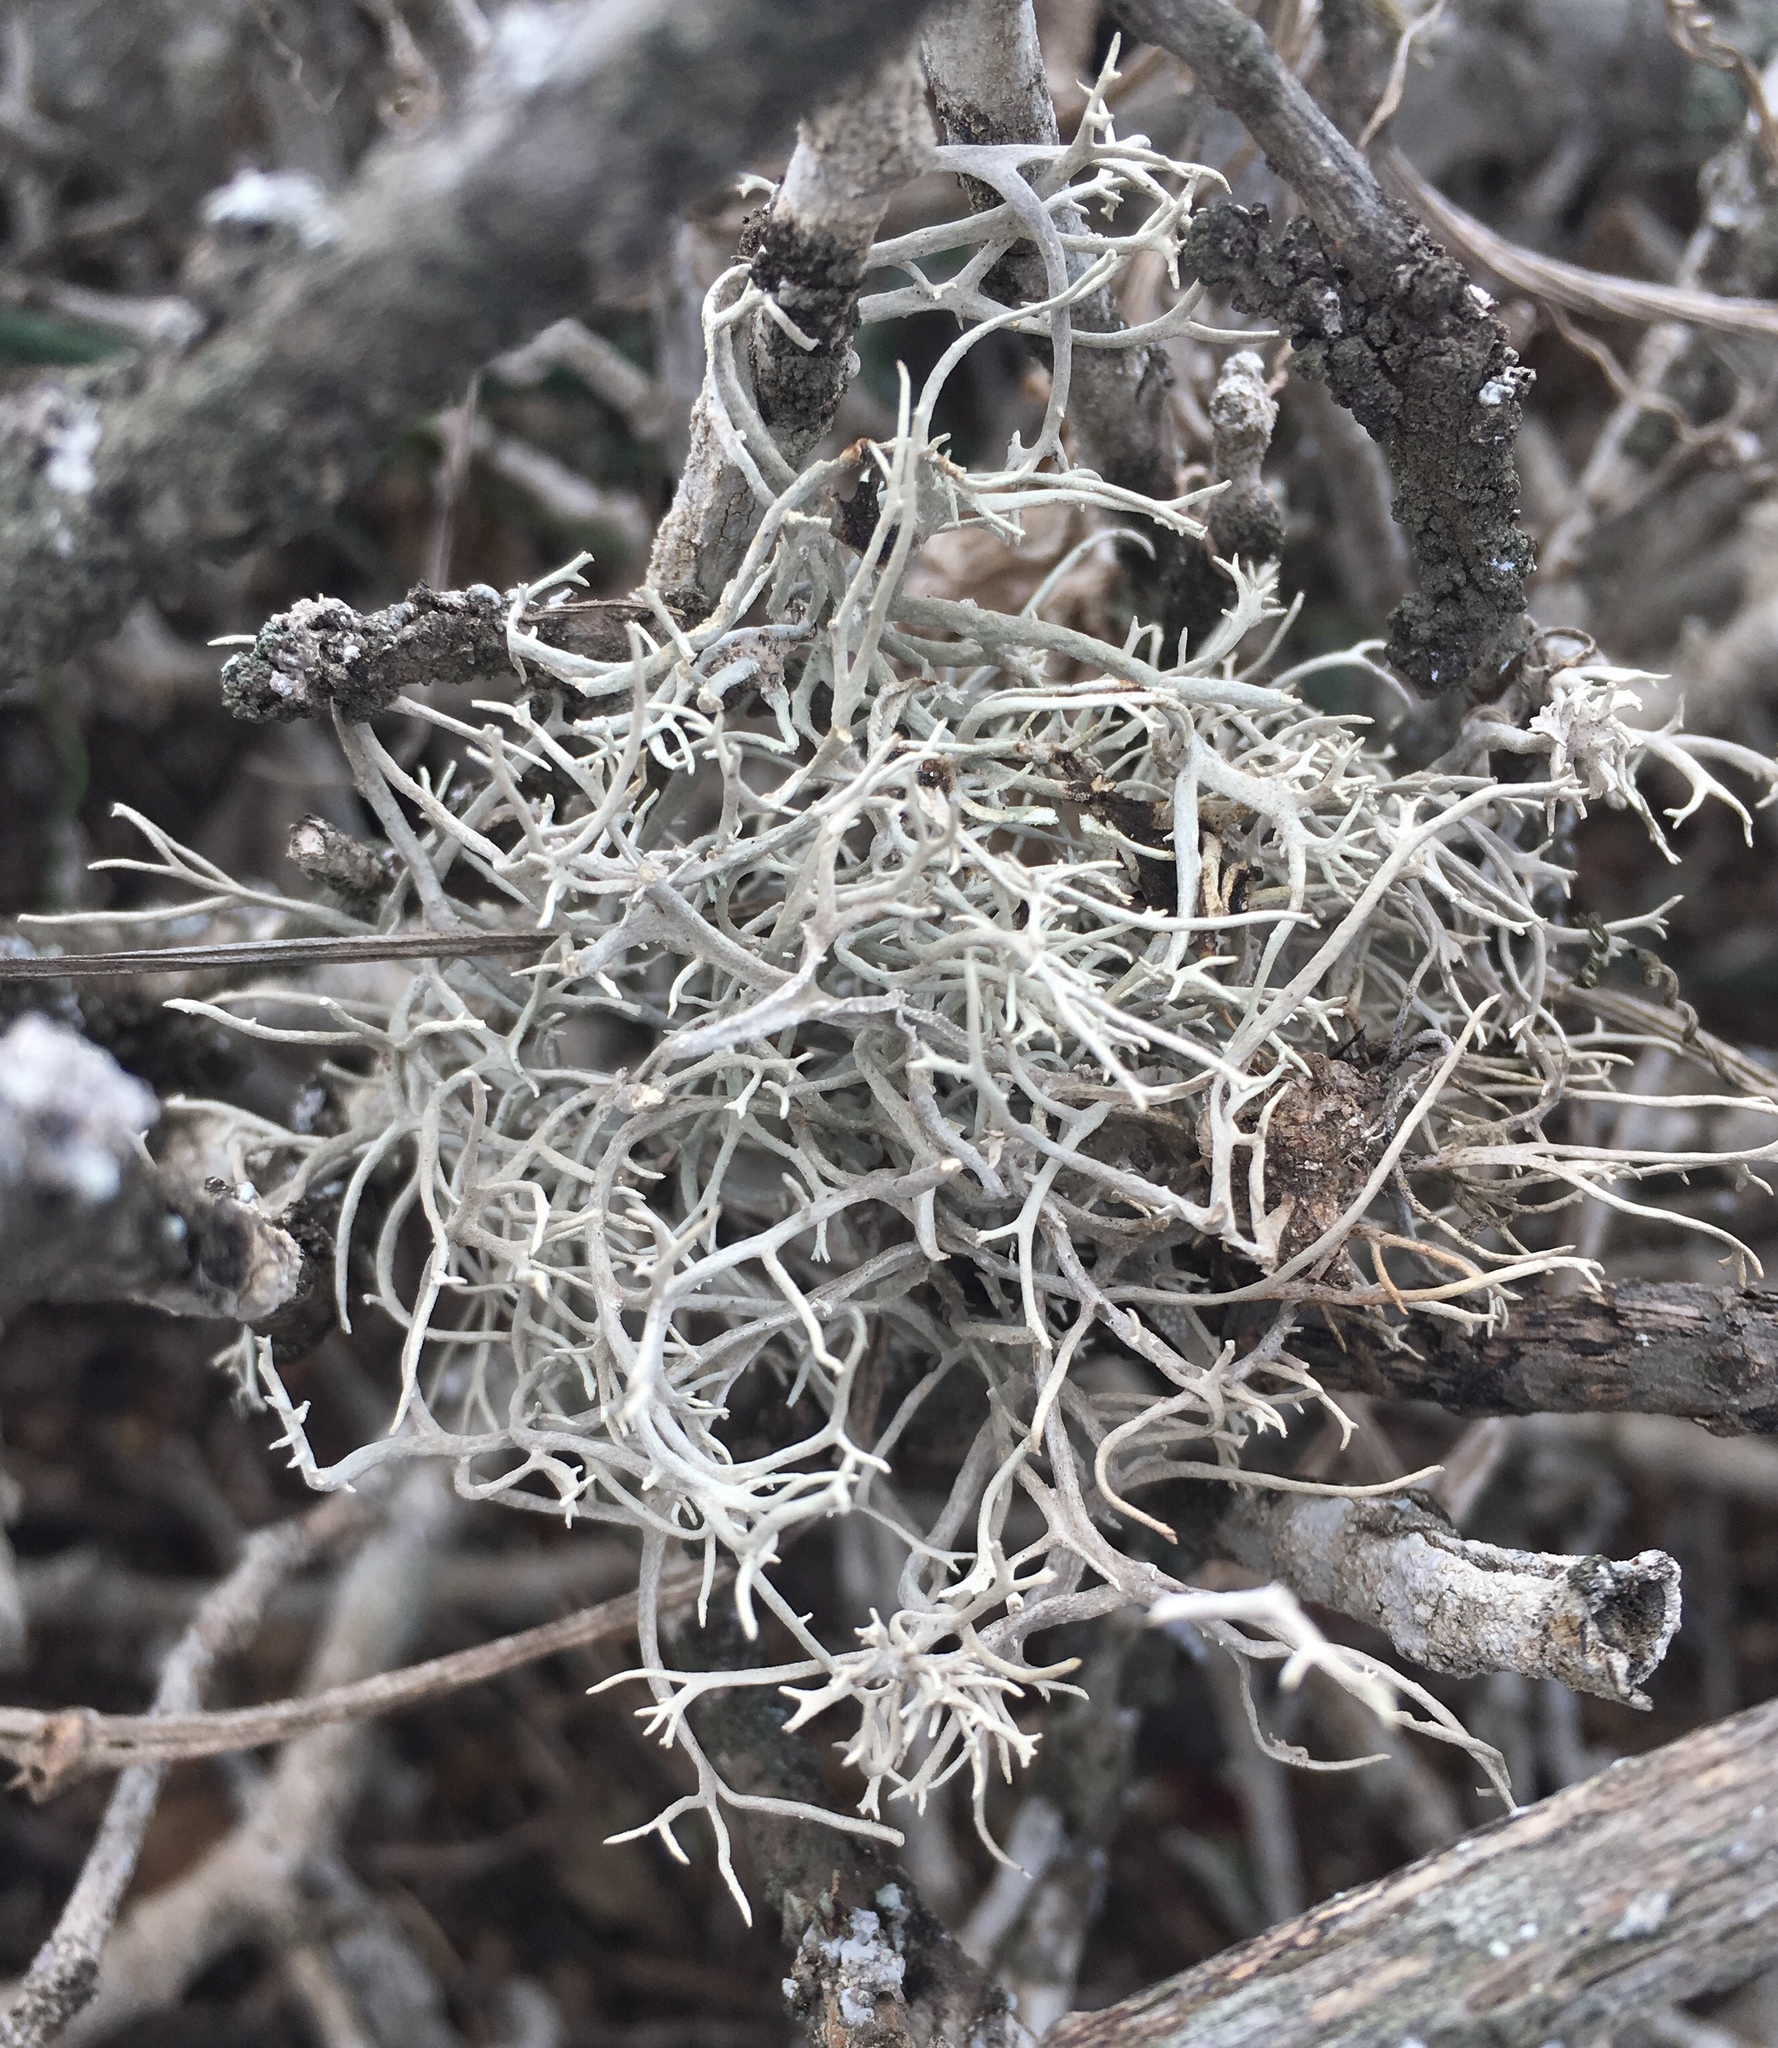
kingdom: Fungi
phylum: Ascomycota
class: Arthoniomycetes
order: Arthoniales
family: Roccellaceae
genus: Dendrographa
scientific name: Dendrographa alectoroides
